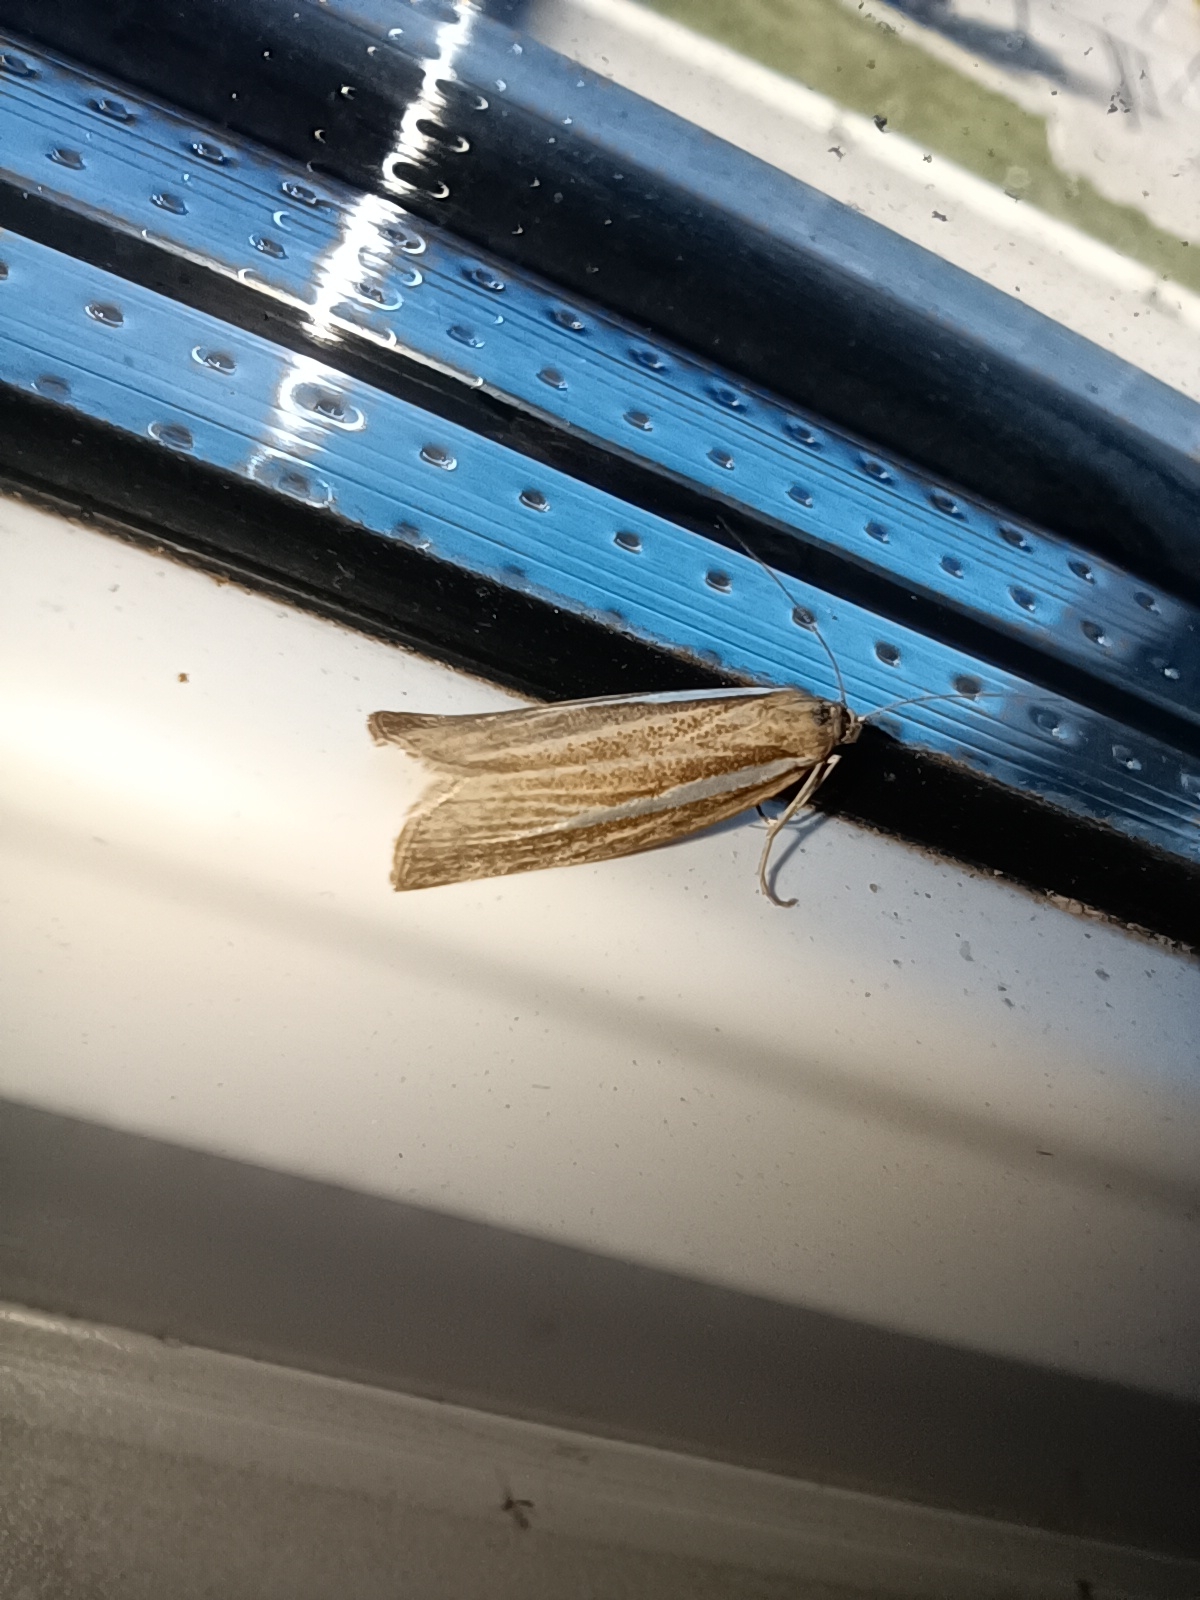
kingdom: Animalia
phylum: Arthropoda
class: Insecta
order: Lepidoptera
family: Crambidae
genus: Agriphila
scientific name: Agriphila tristellus
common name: Common grass-veneer
